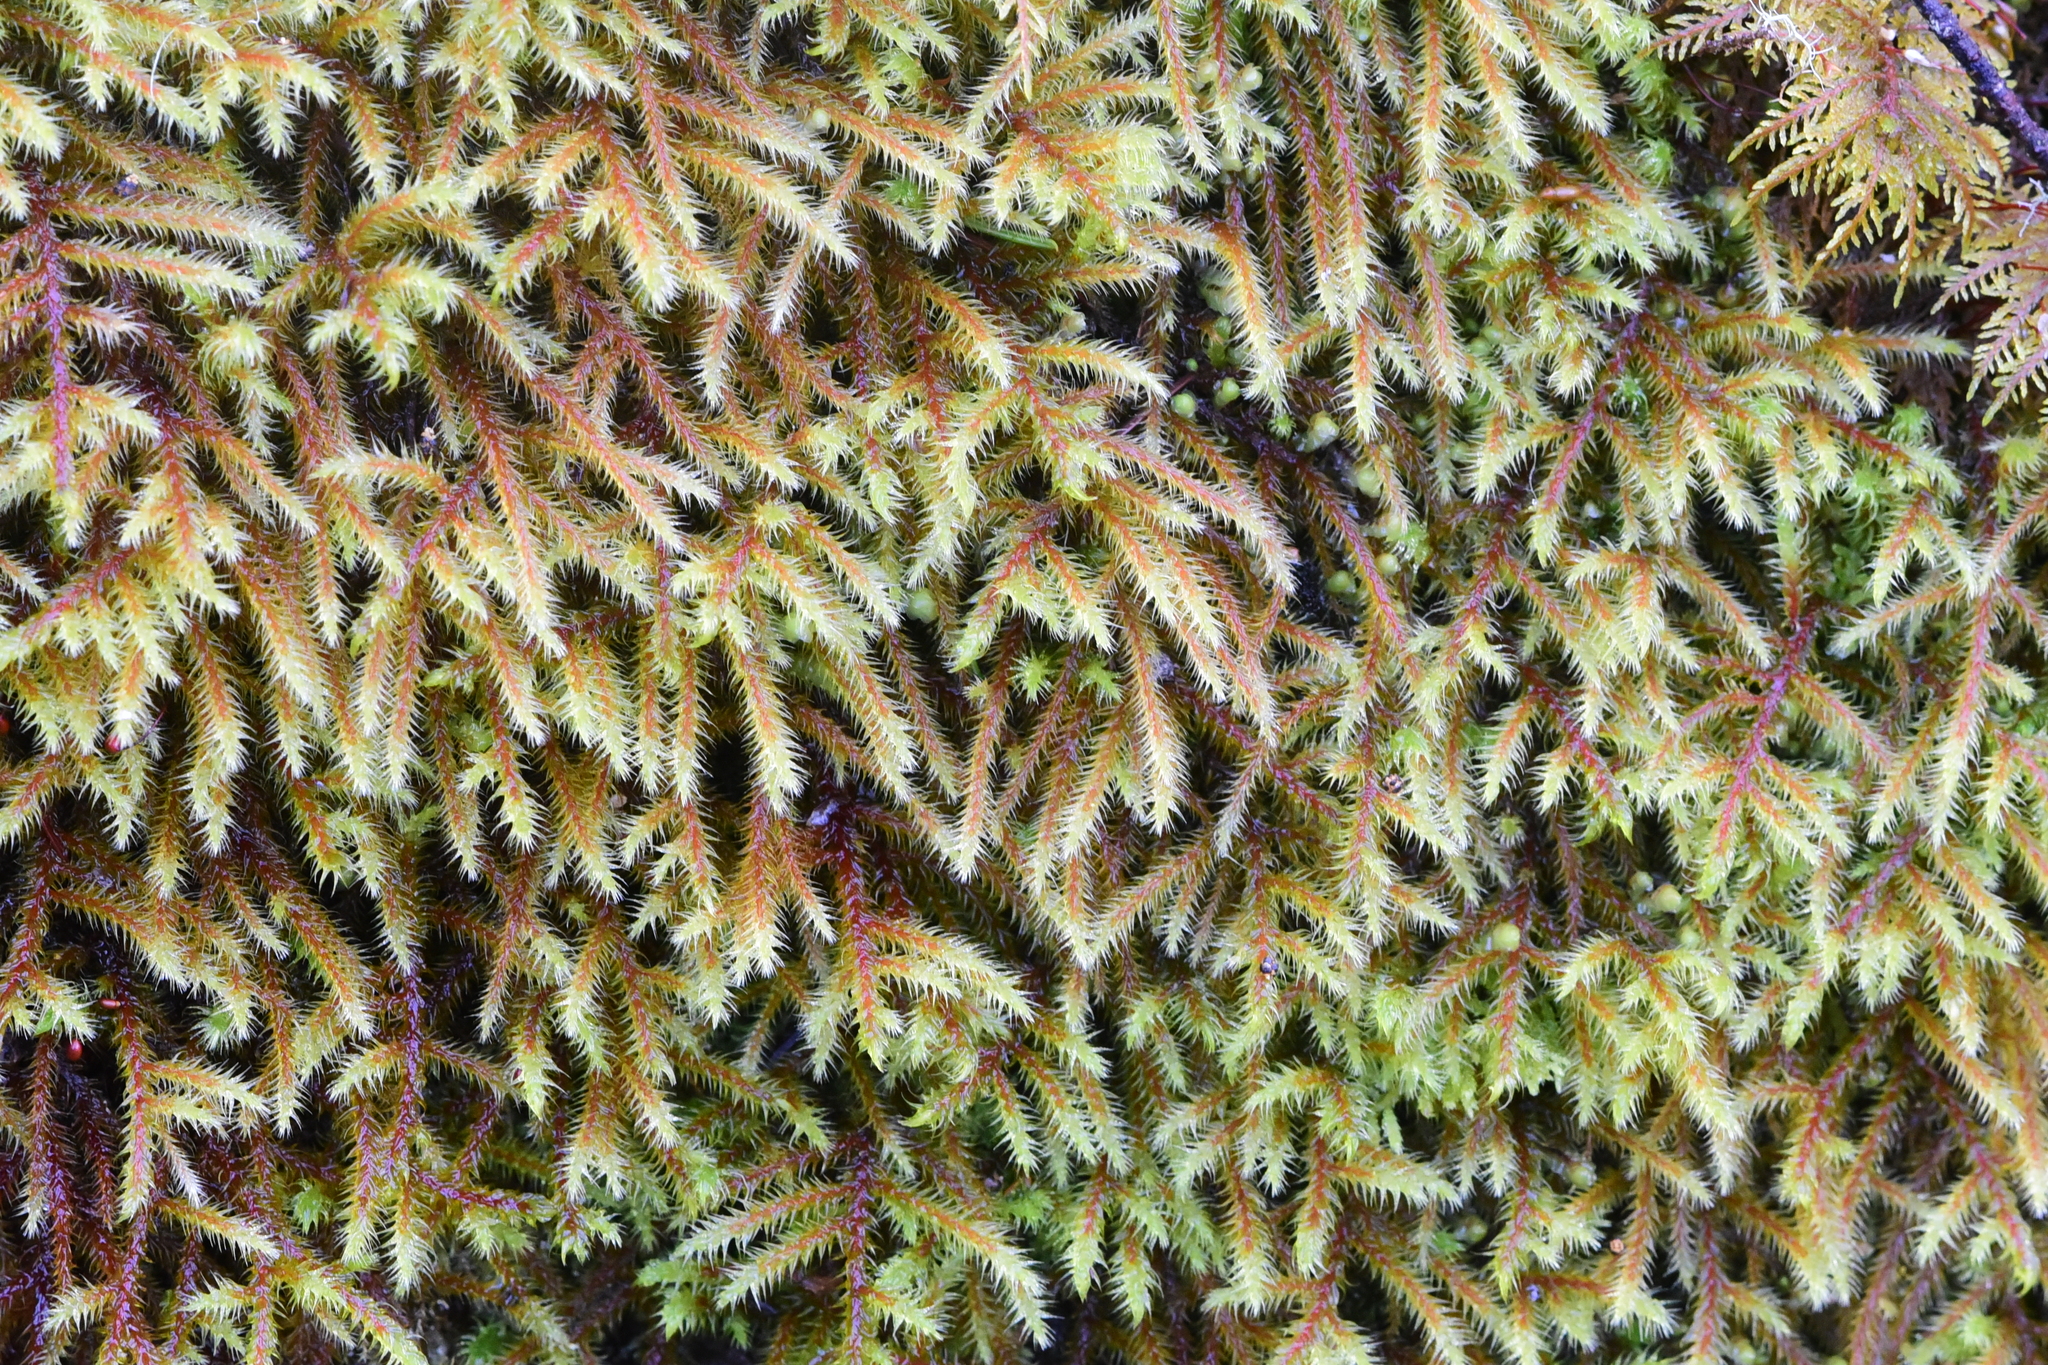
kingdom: Plantae
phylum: Bryophyta
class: Bryopsida
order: Hypnales
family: Hylocomiaceae
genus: Rhytidiadelphus
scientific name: Rhytidiadelphus loreus
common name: Lanky moss
